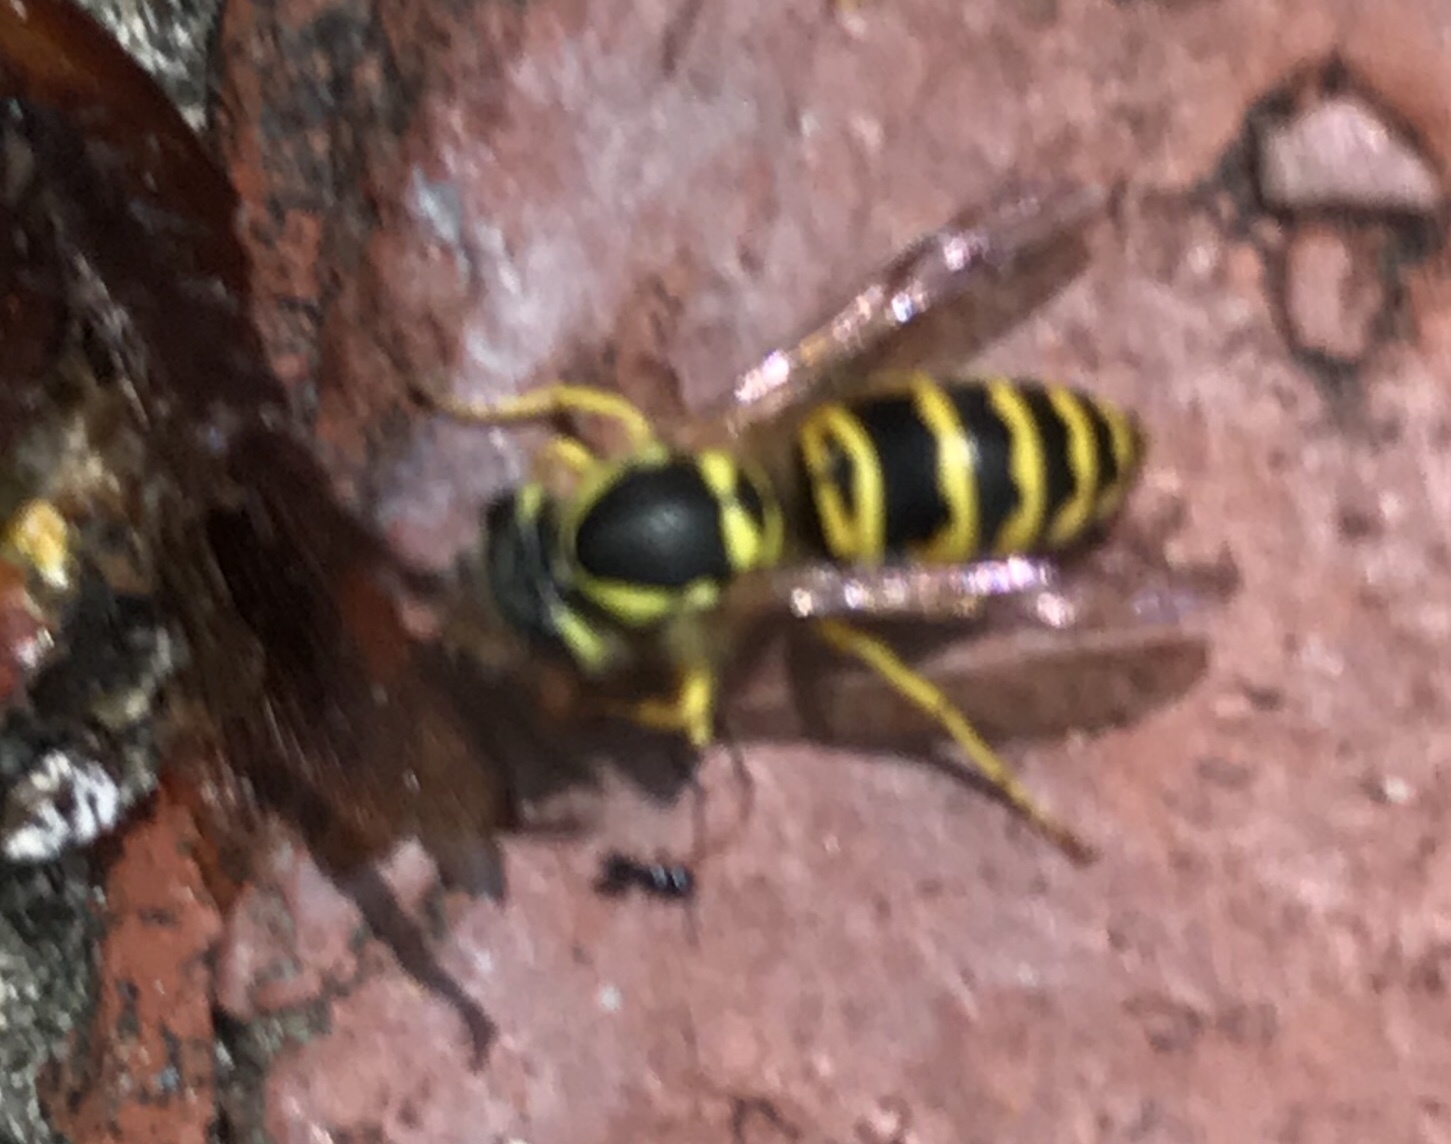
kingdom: Animalia
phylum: Arthropoda
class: Insecta
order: Hymenoptera
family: Vespidae
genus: Vespula
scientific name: Vespula maculifrons
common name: Eastern yellowjacket
